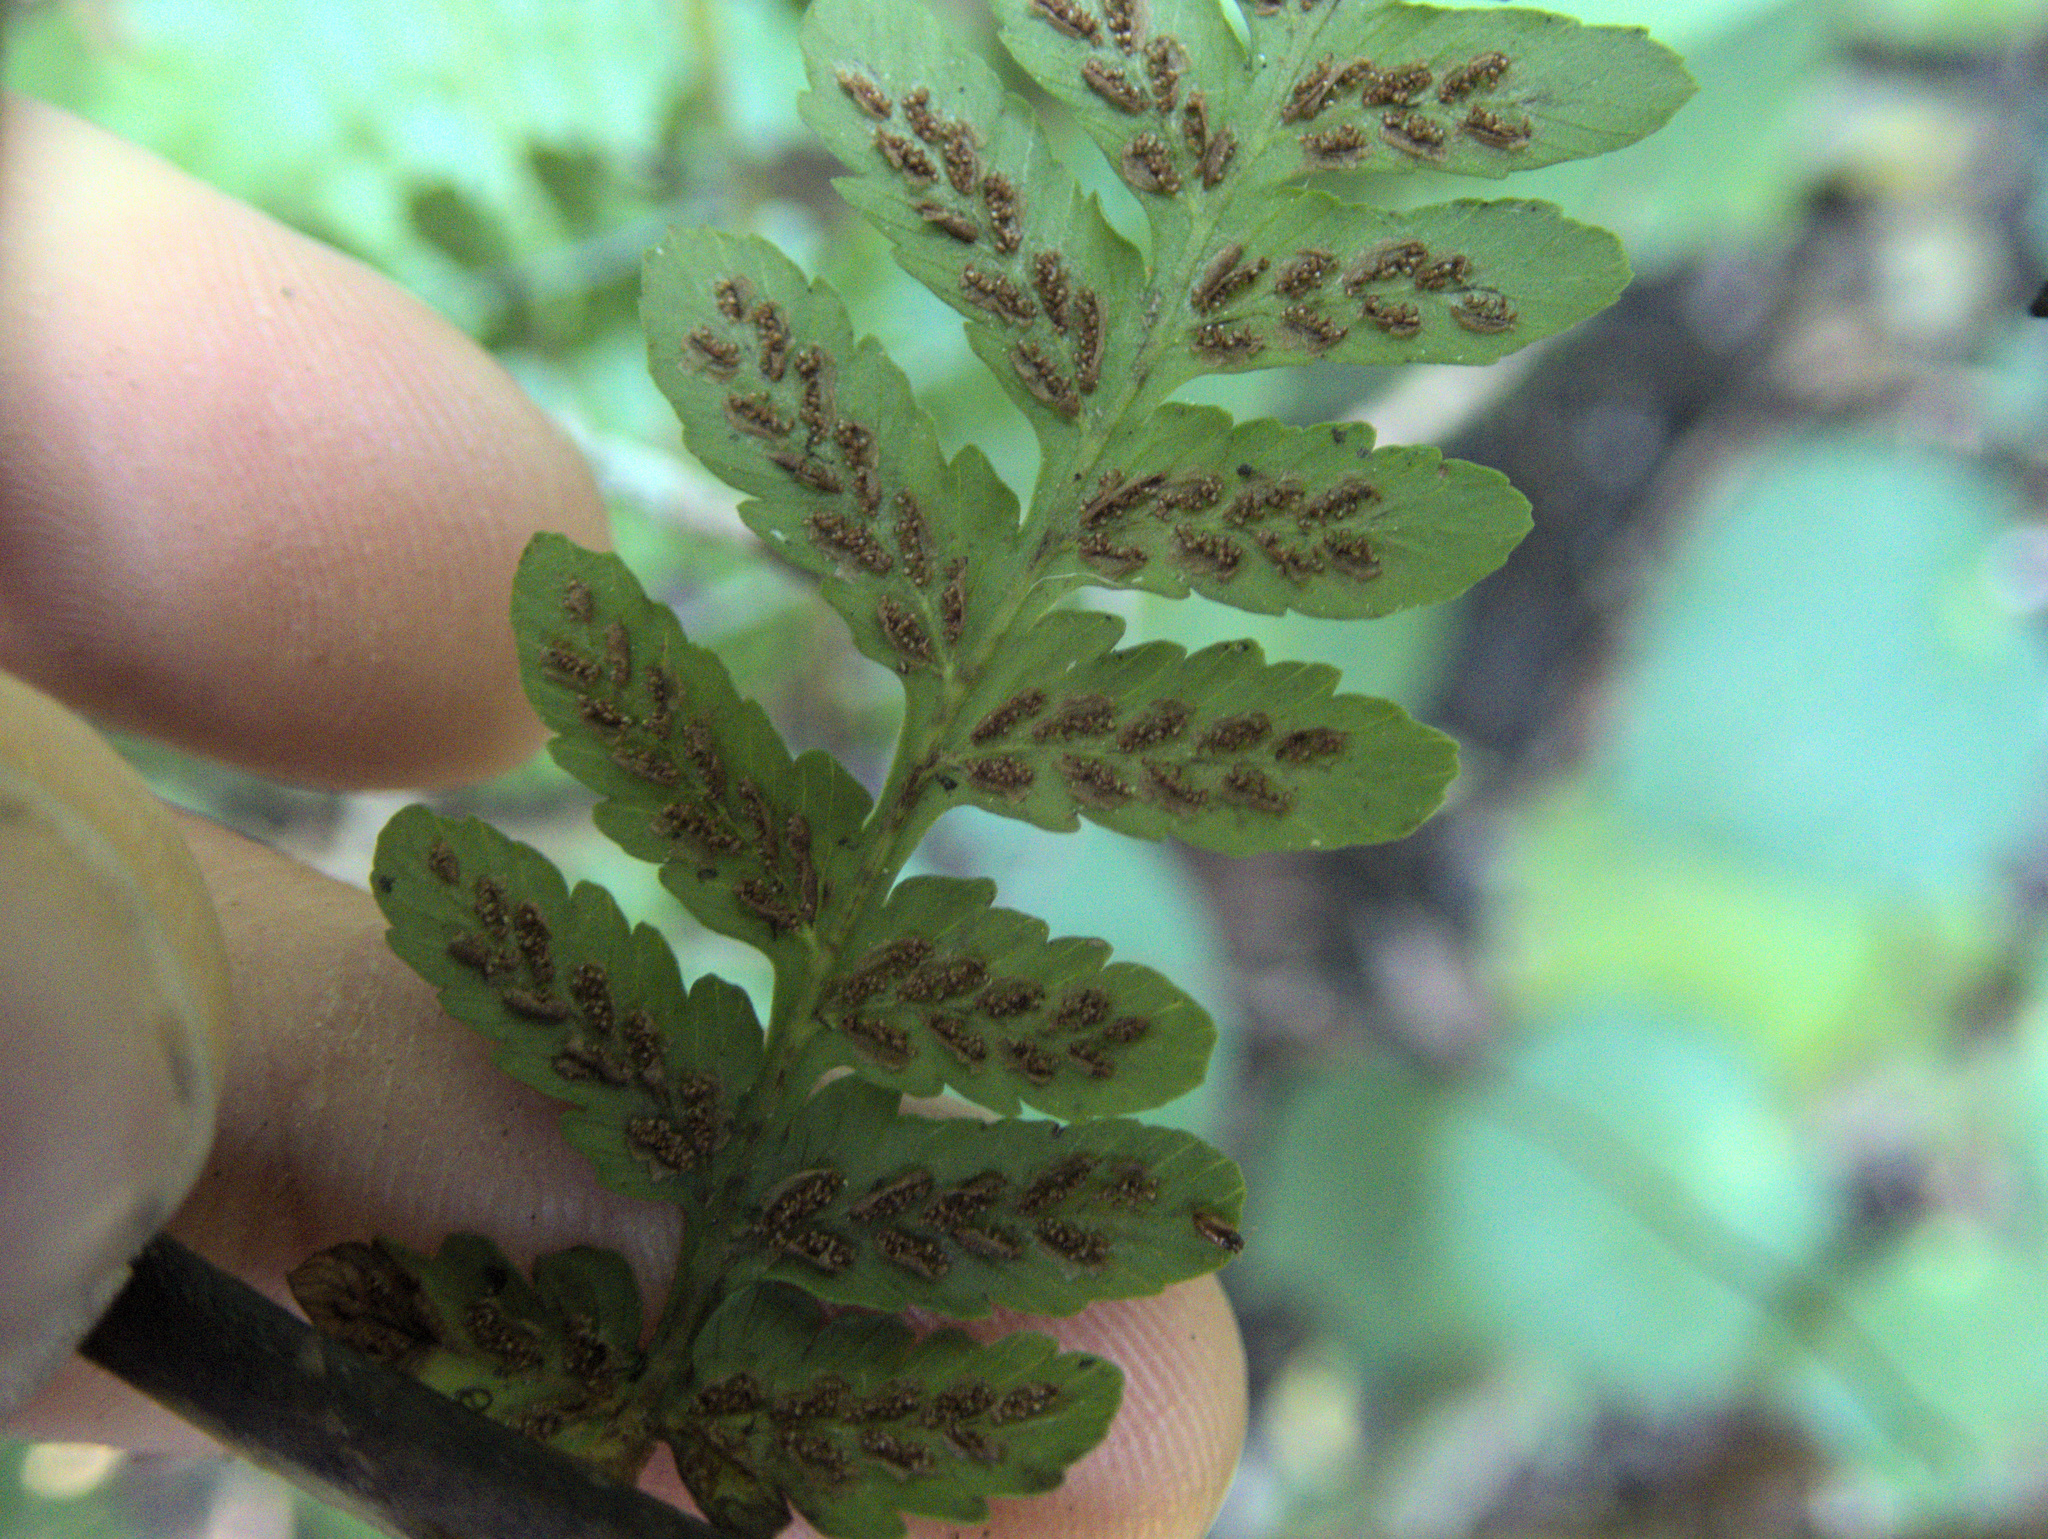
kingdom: Plantae
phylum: Tracheophyta
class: Polypodiopsida
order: Polypodiales
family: Athyriaceae
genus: Diplazium
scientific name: Diplazium australe
